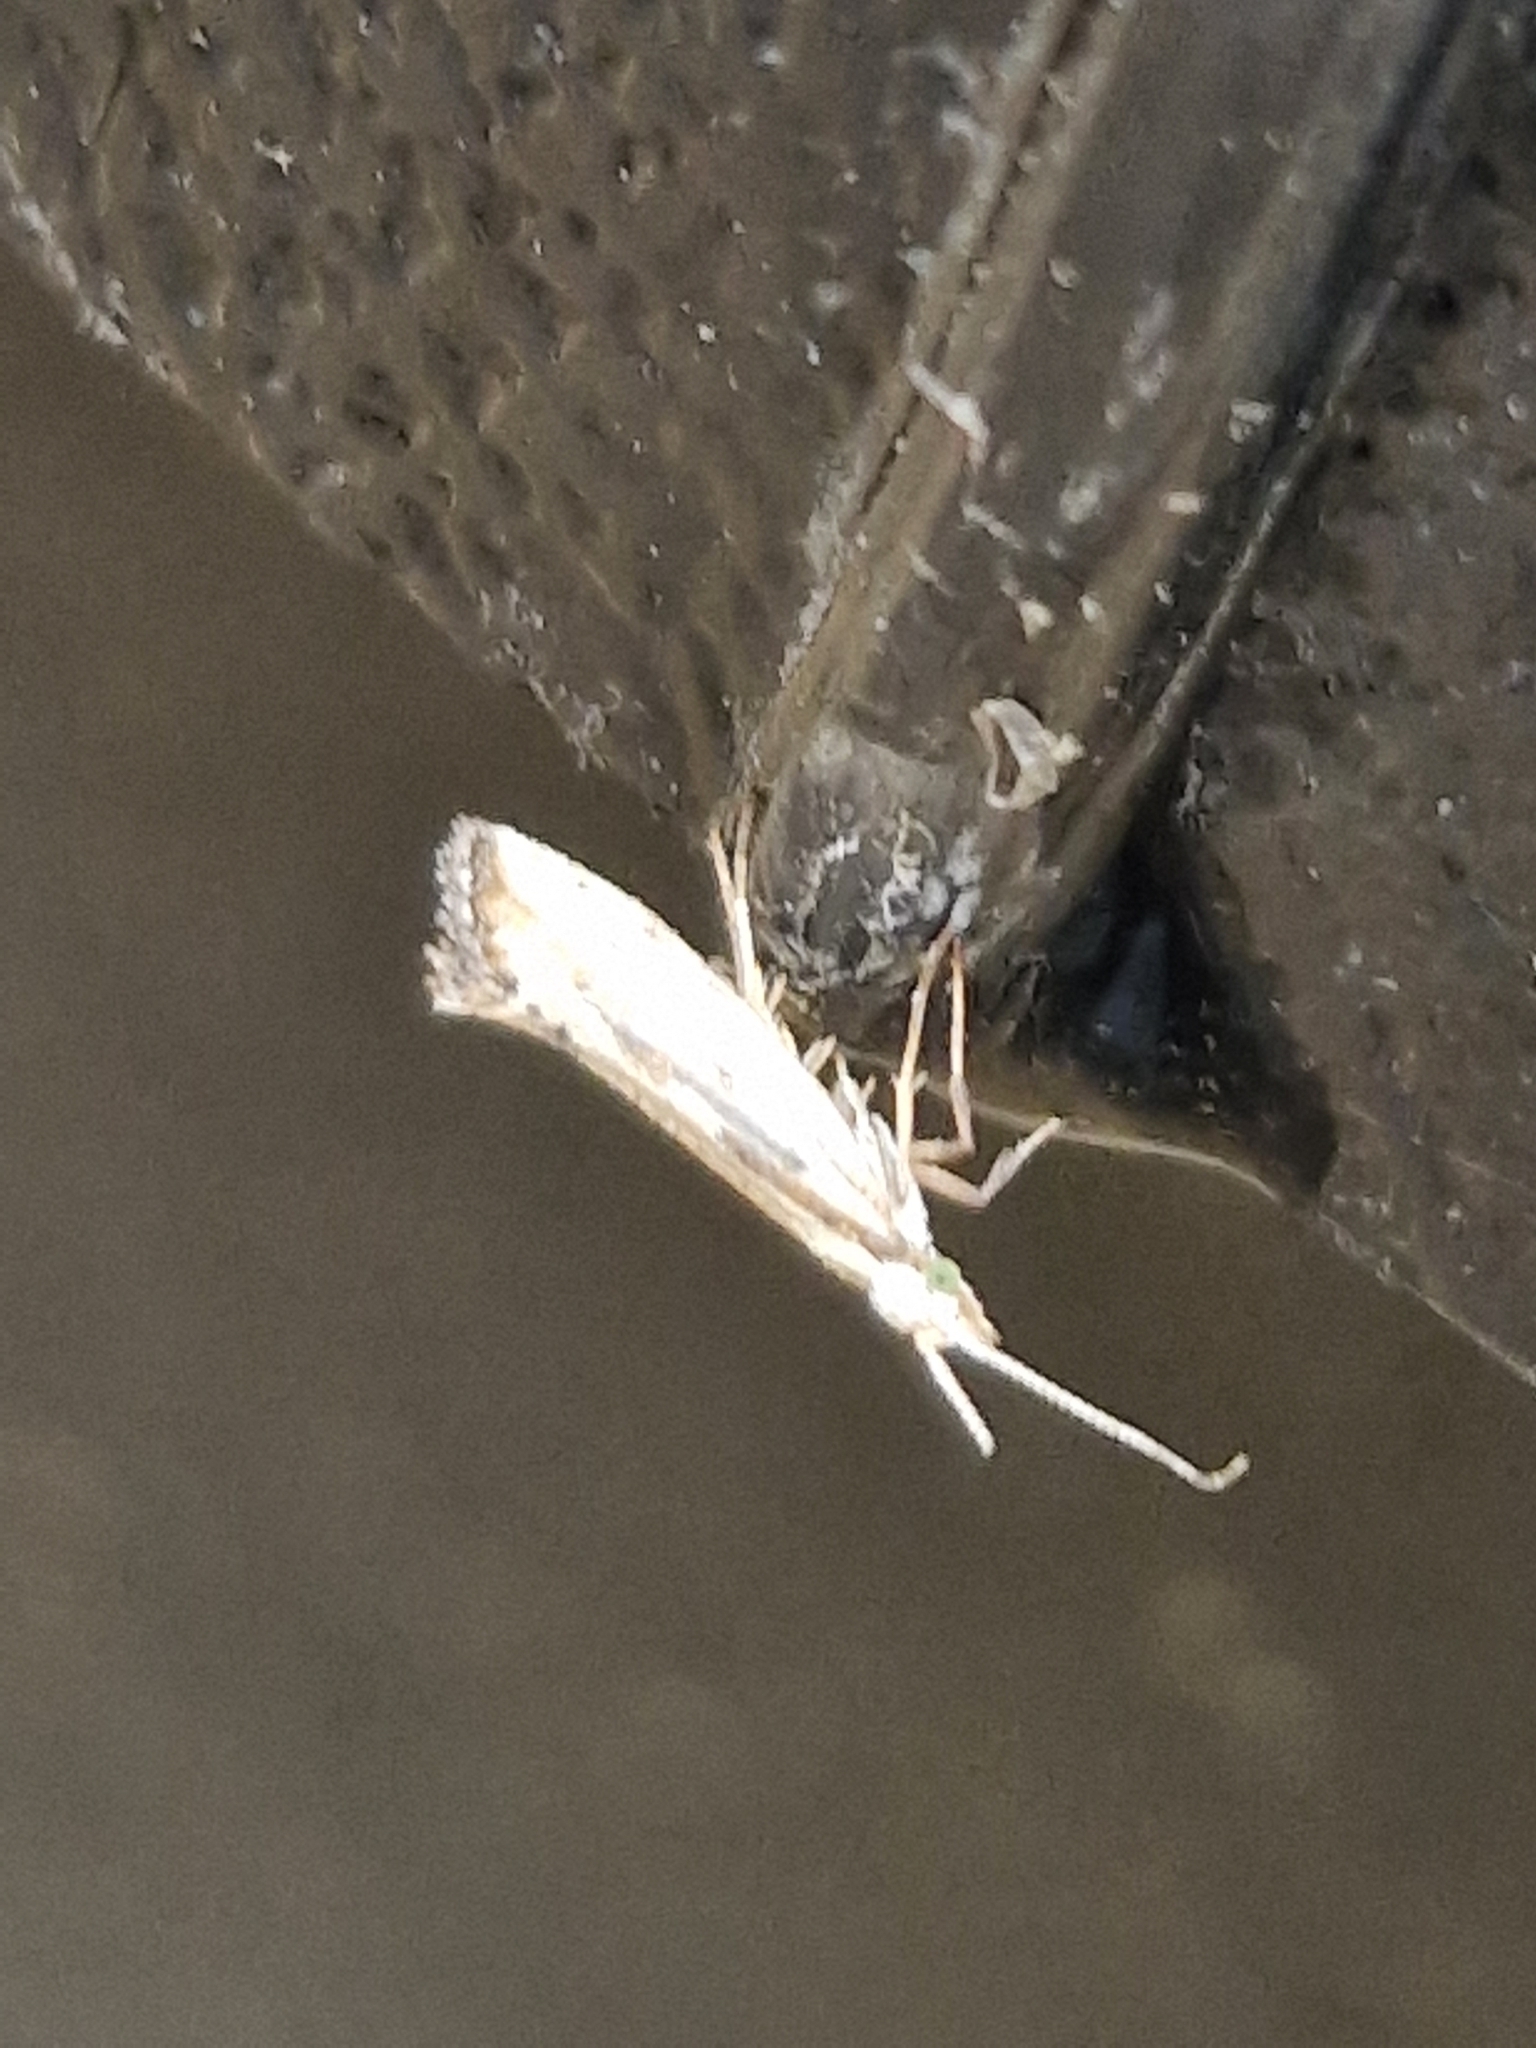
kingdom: Animalia
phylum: Arthropoda
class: Insecta
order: Lepidoptera
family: Plutellidae
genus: Plutella
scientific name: Plutella porrectella
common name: Dame's rocket moth
